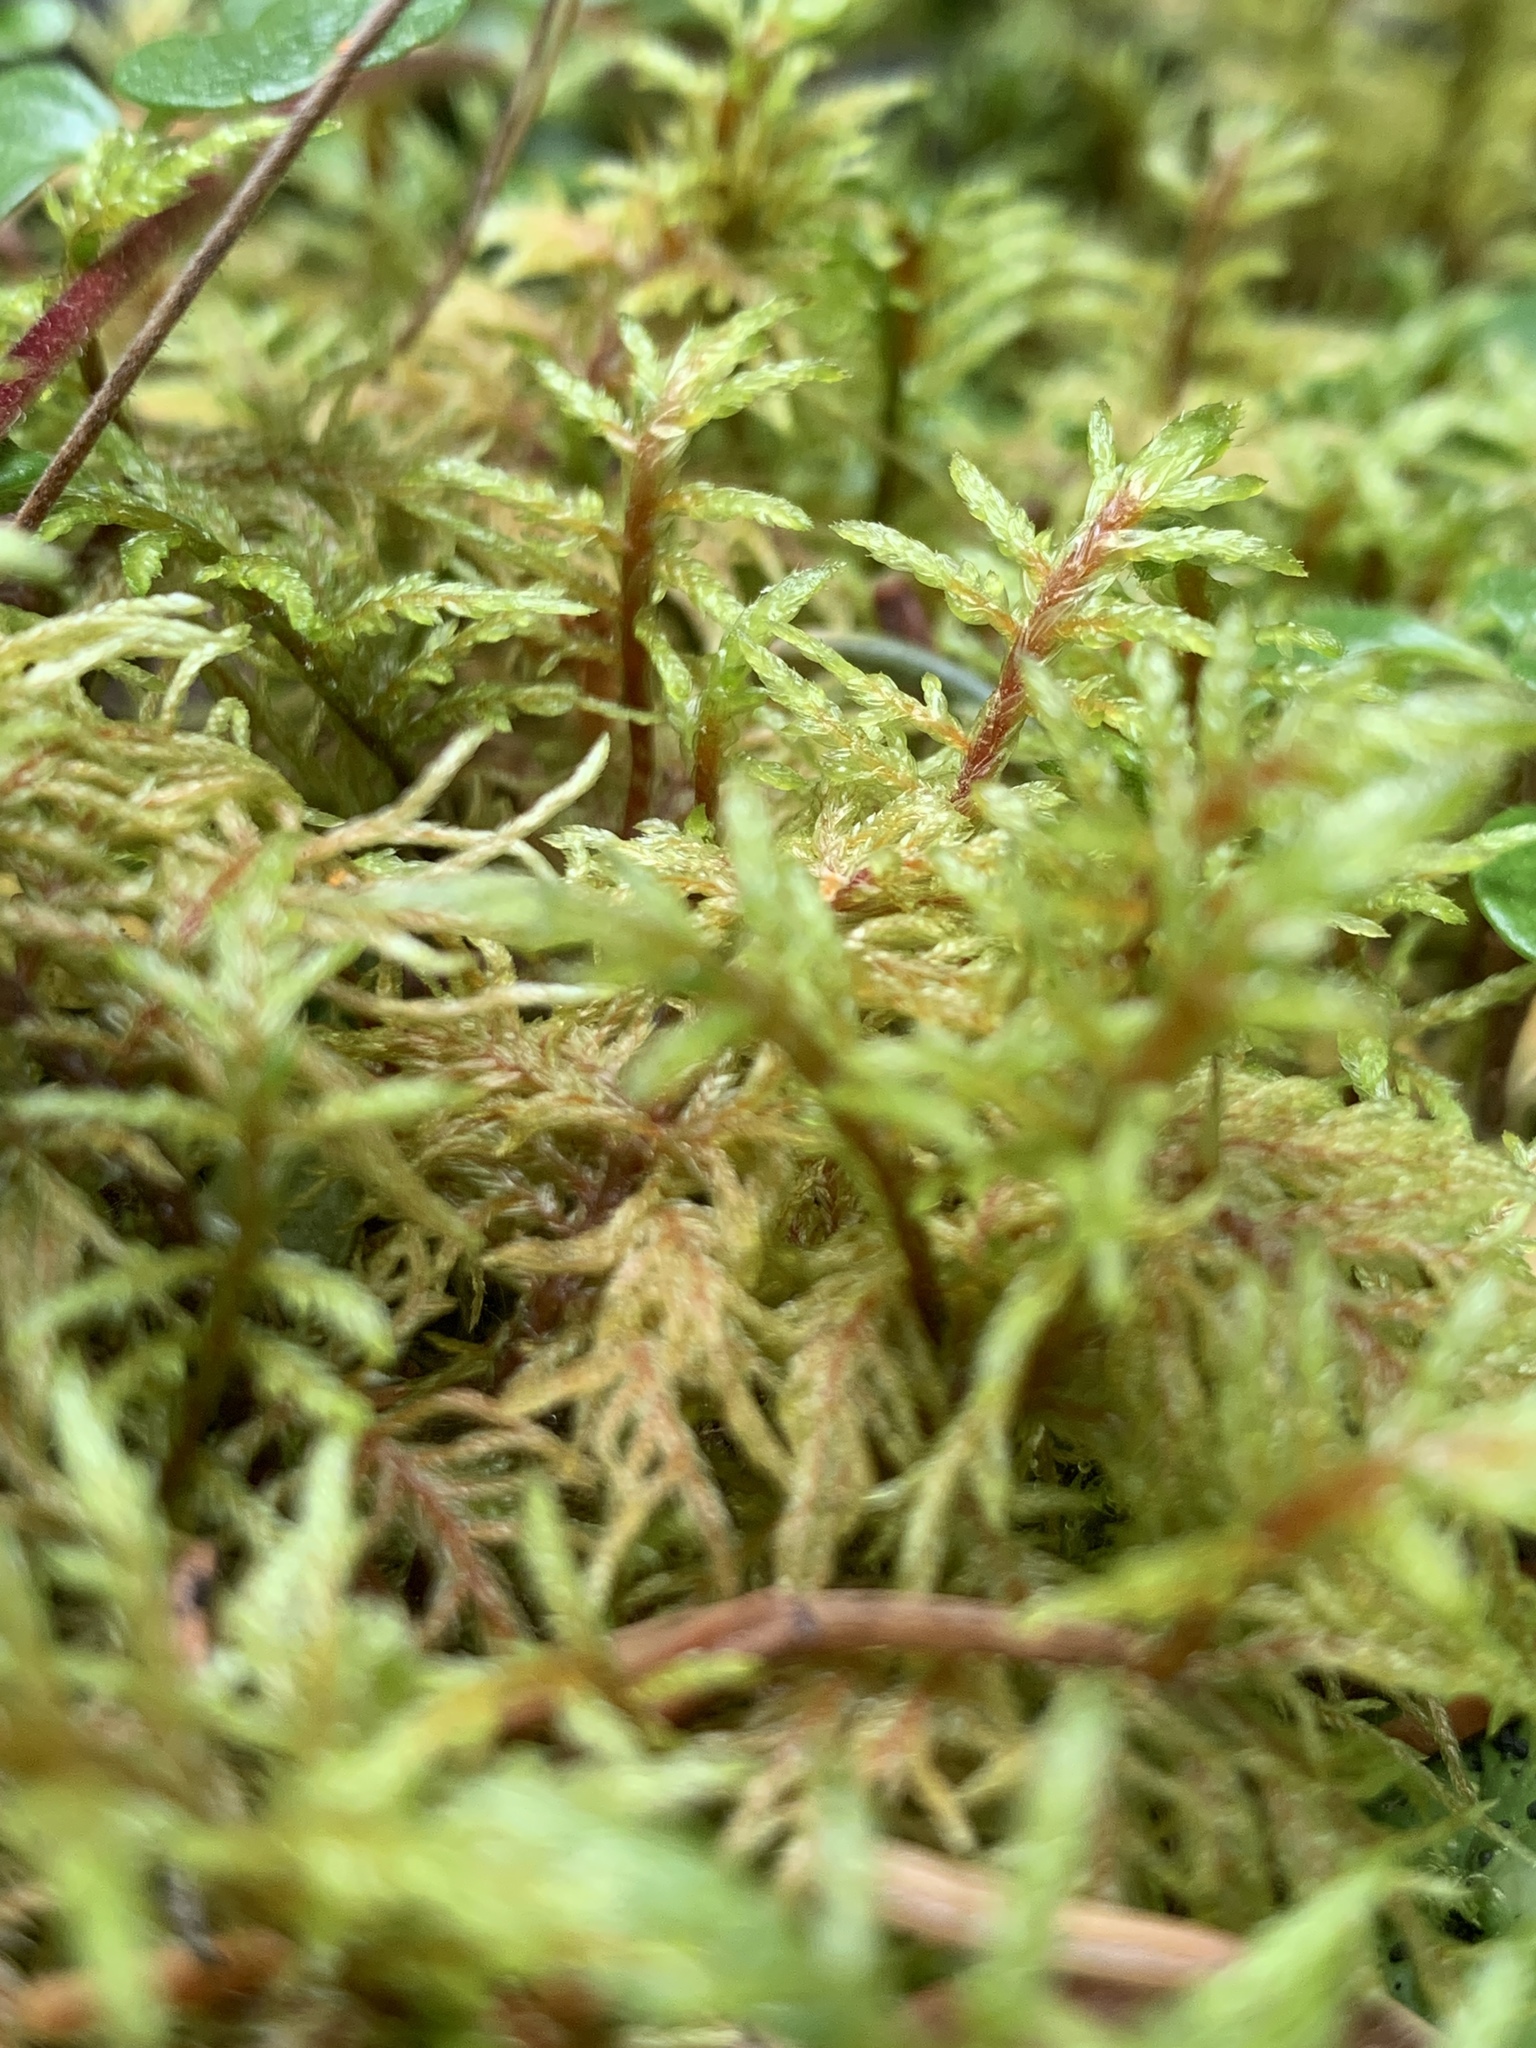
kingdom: Plantae
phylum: Bryophyta
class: Bryopsida
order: Hypnales
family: Hylocomiaceae
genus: Pleurozium
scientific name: Pleurozium schreberi
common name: Red-stemmed feather moss
